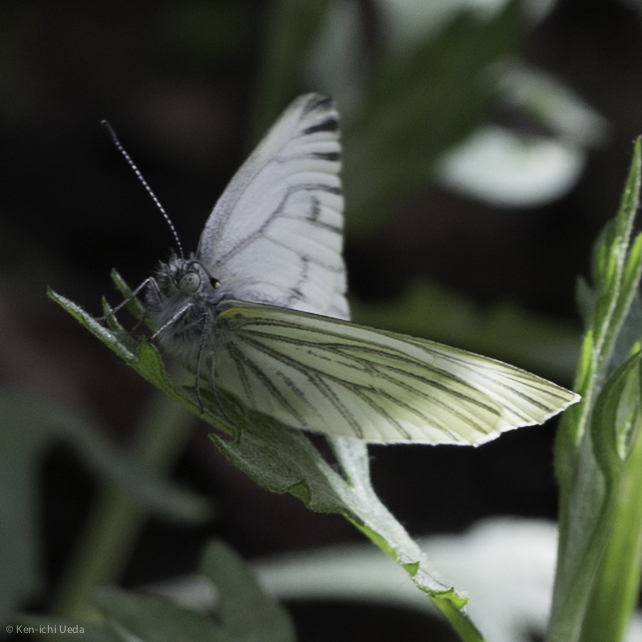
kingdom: Animalia
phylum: Arthropoda
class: Insecta
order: Lepidoptera
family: Pieridae
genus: Pieris
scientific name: Pieris marginalis
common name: Margined white
